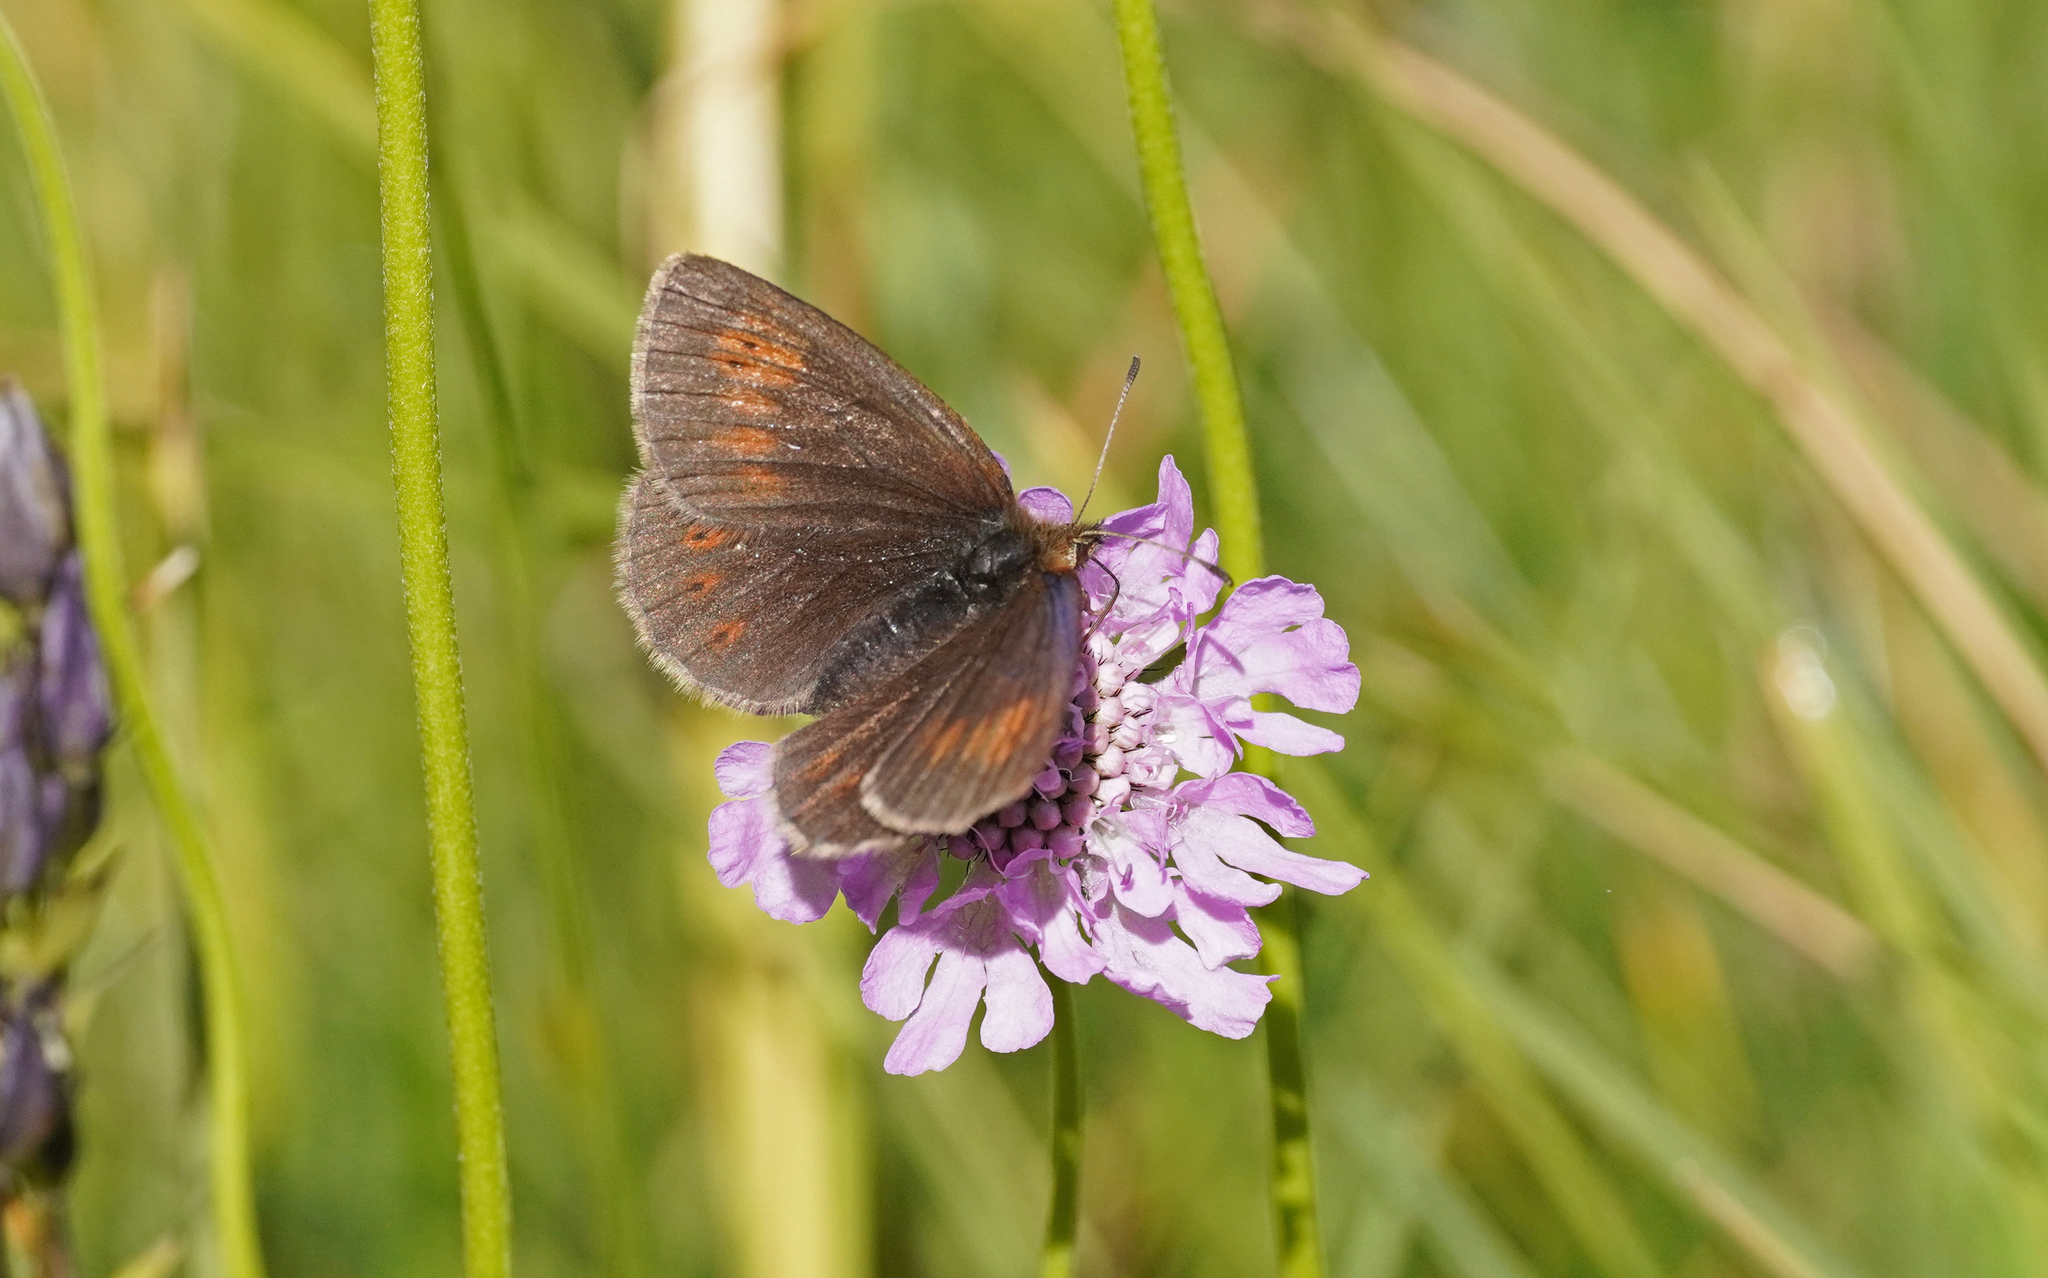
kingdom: Animalia
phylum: Arthropoda
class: Insecta
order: Lepidoptera
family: Nymphalidae
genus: Erebia
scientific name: Erebia manto
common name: Yellow-spotted ringlet
